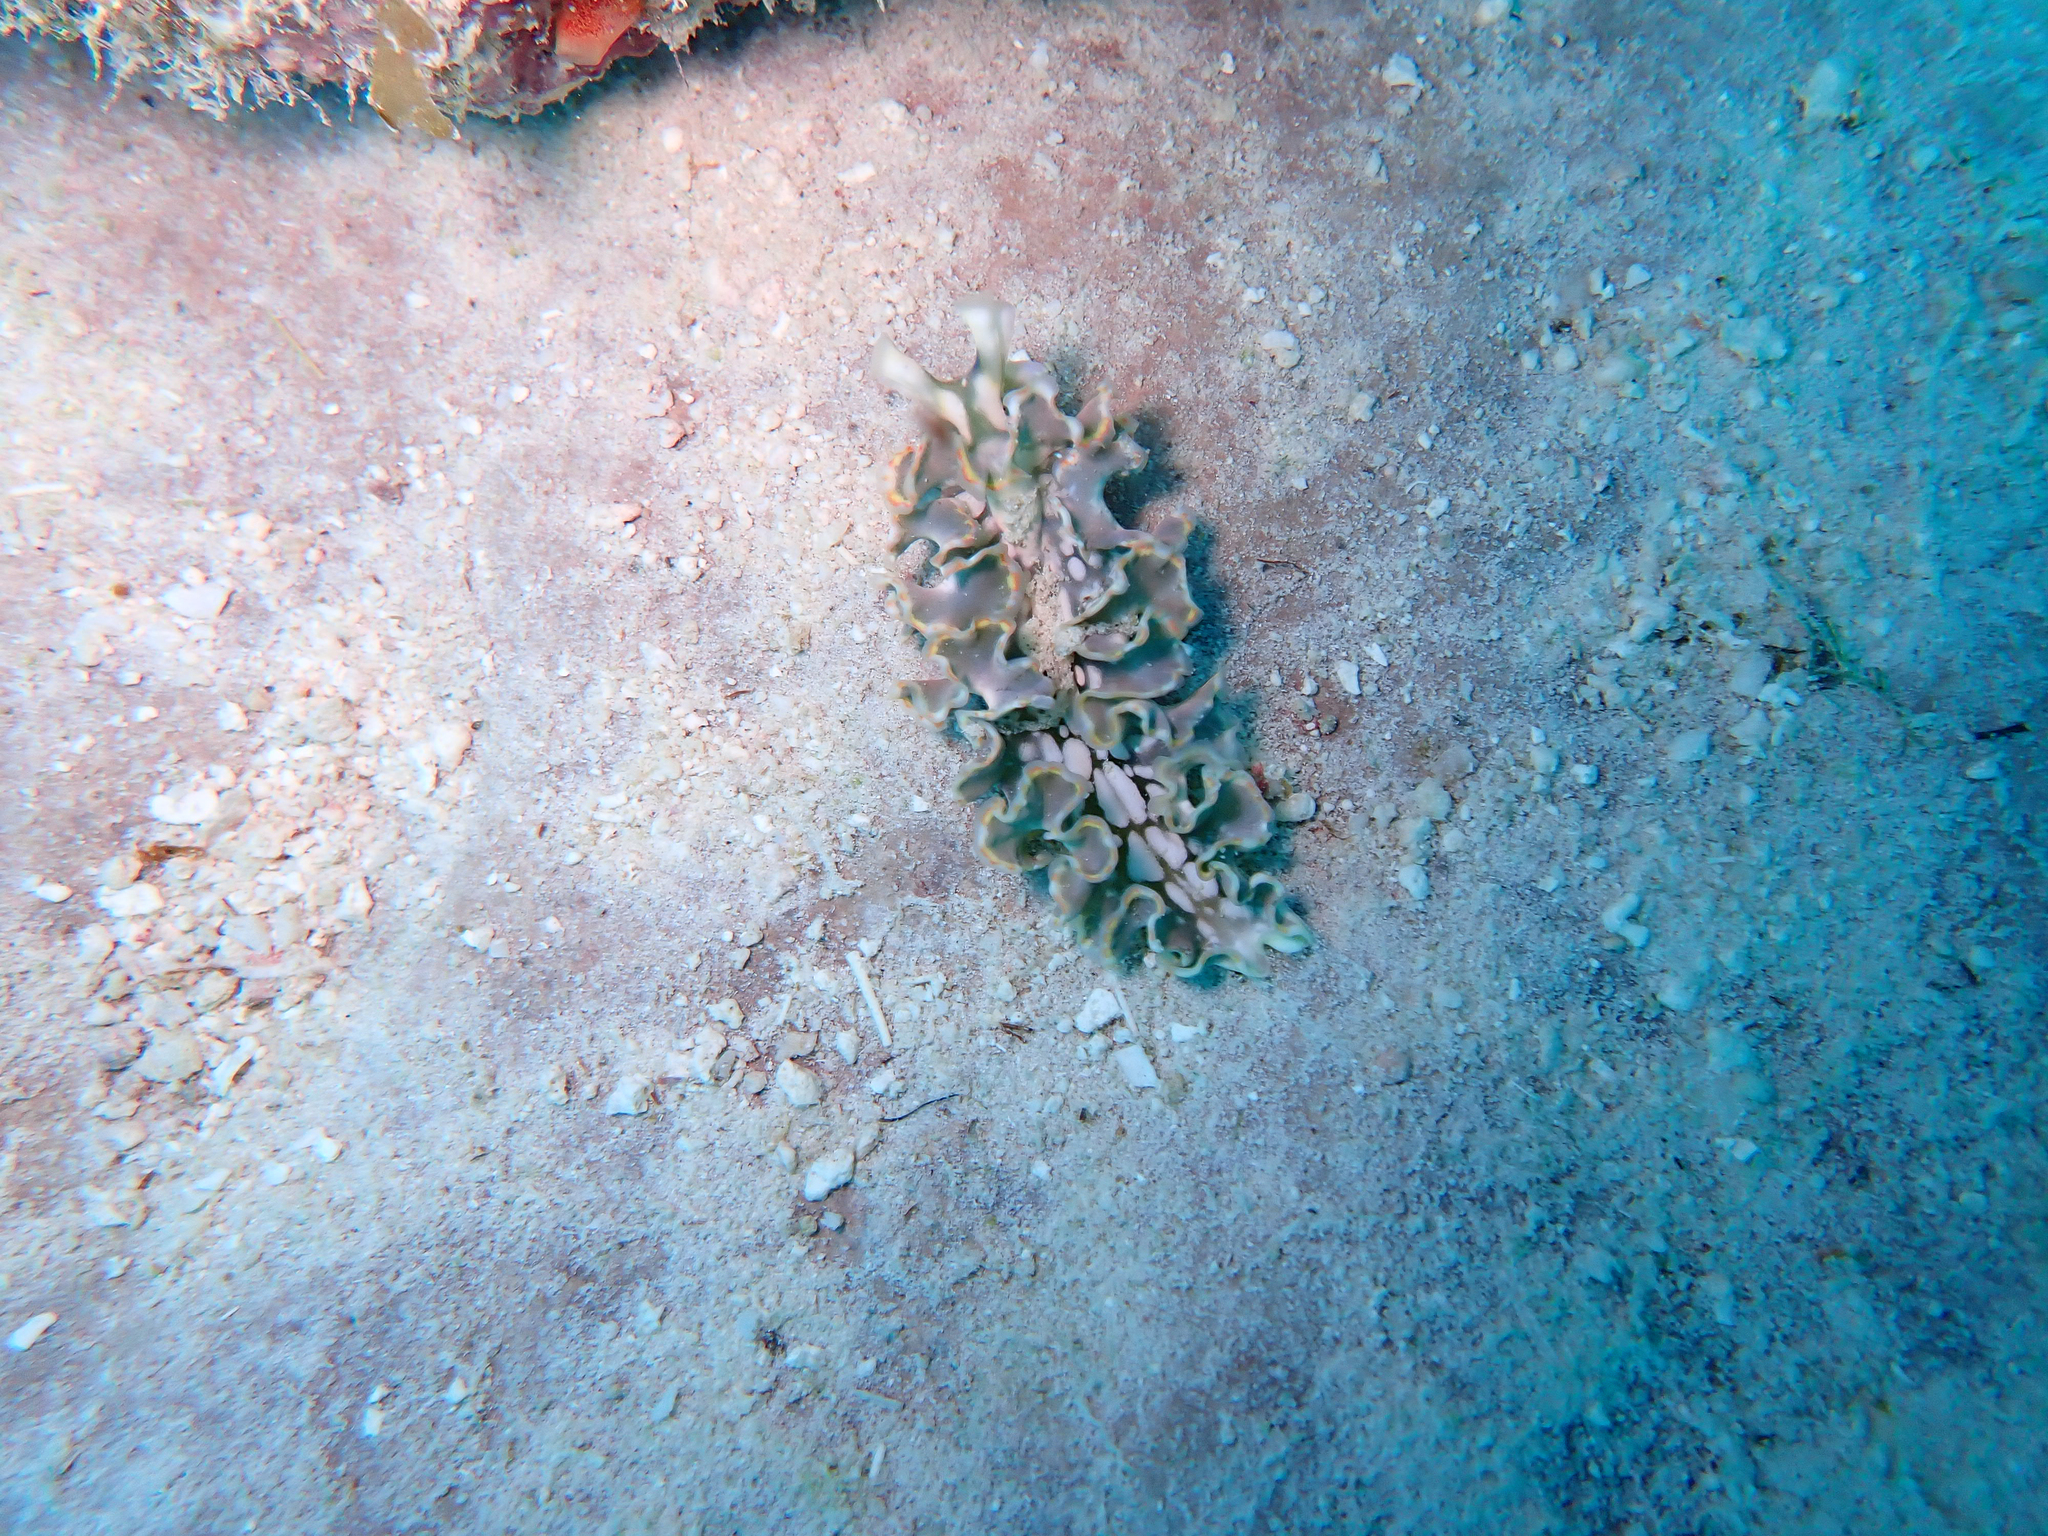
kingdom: Animalia
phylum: Mollusca
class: Gastropoda
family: Plakobranchidae
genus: Elysia
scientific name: Elysia crispata
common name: Lettuce slug
